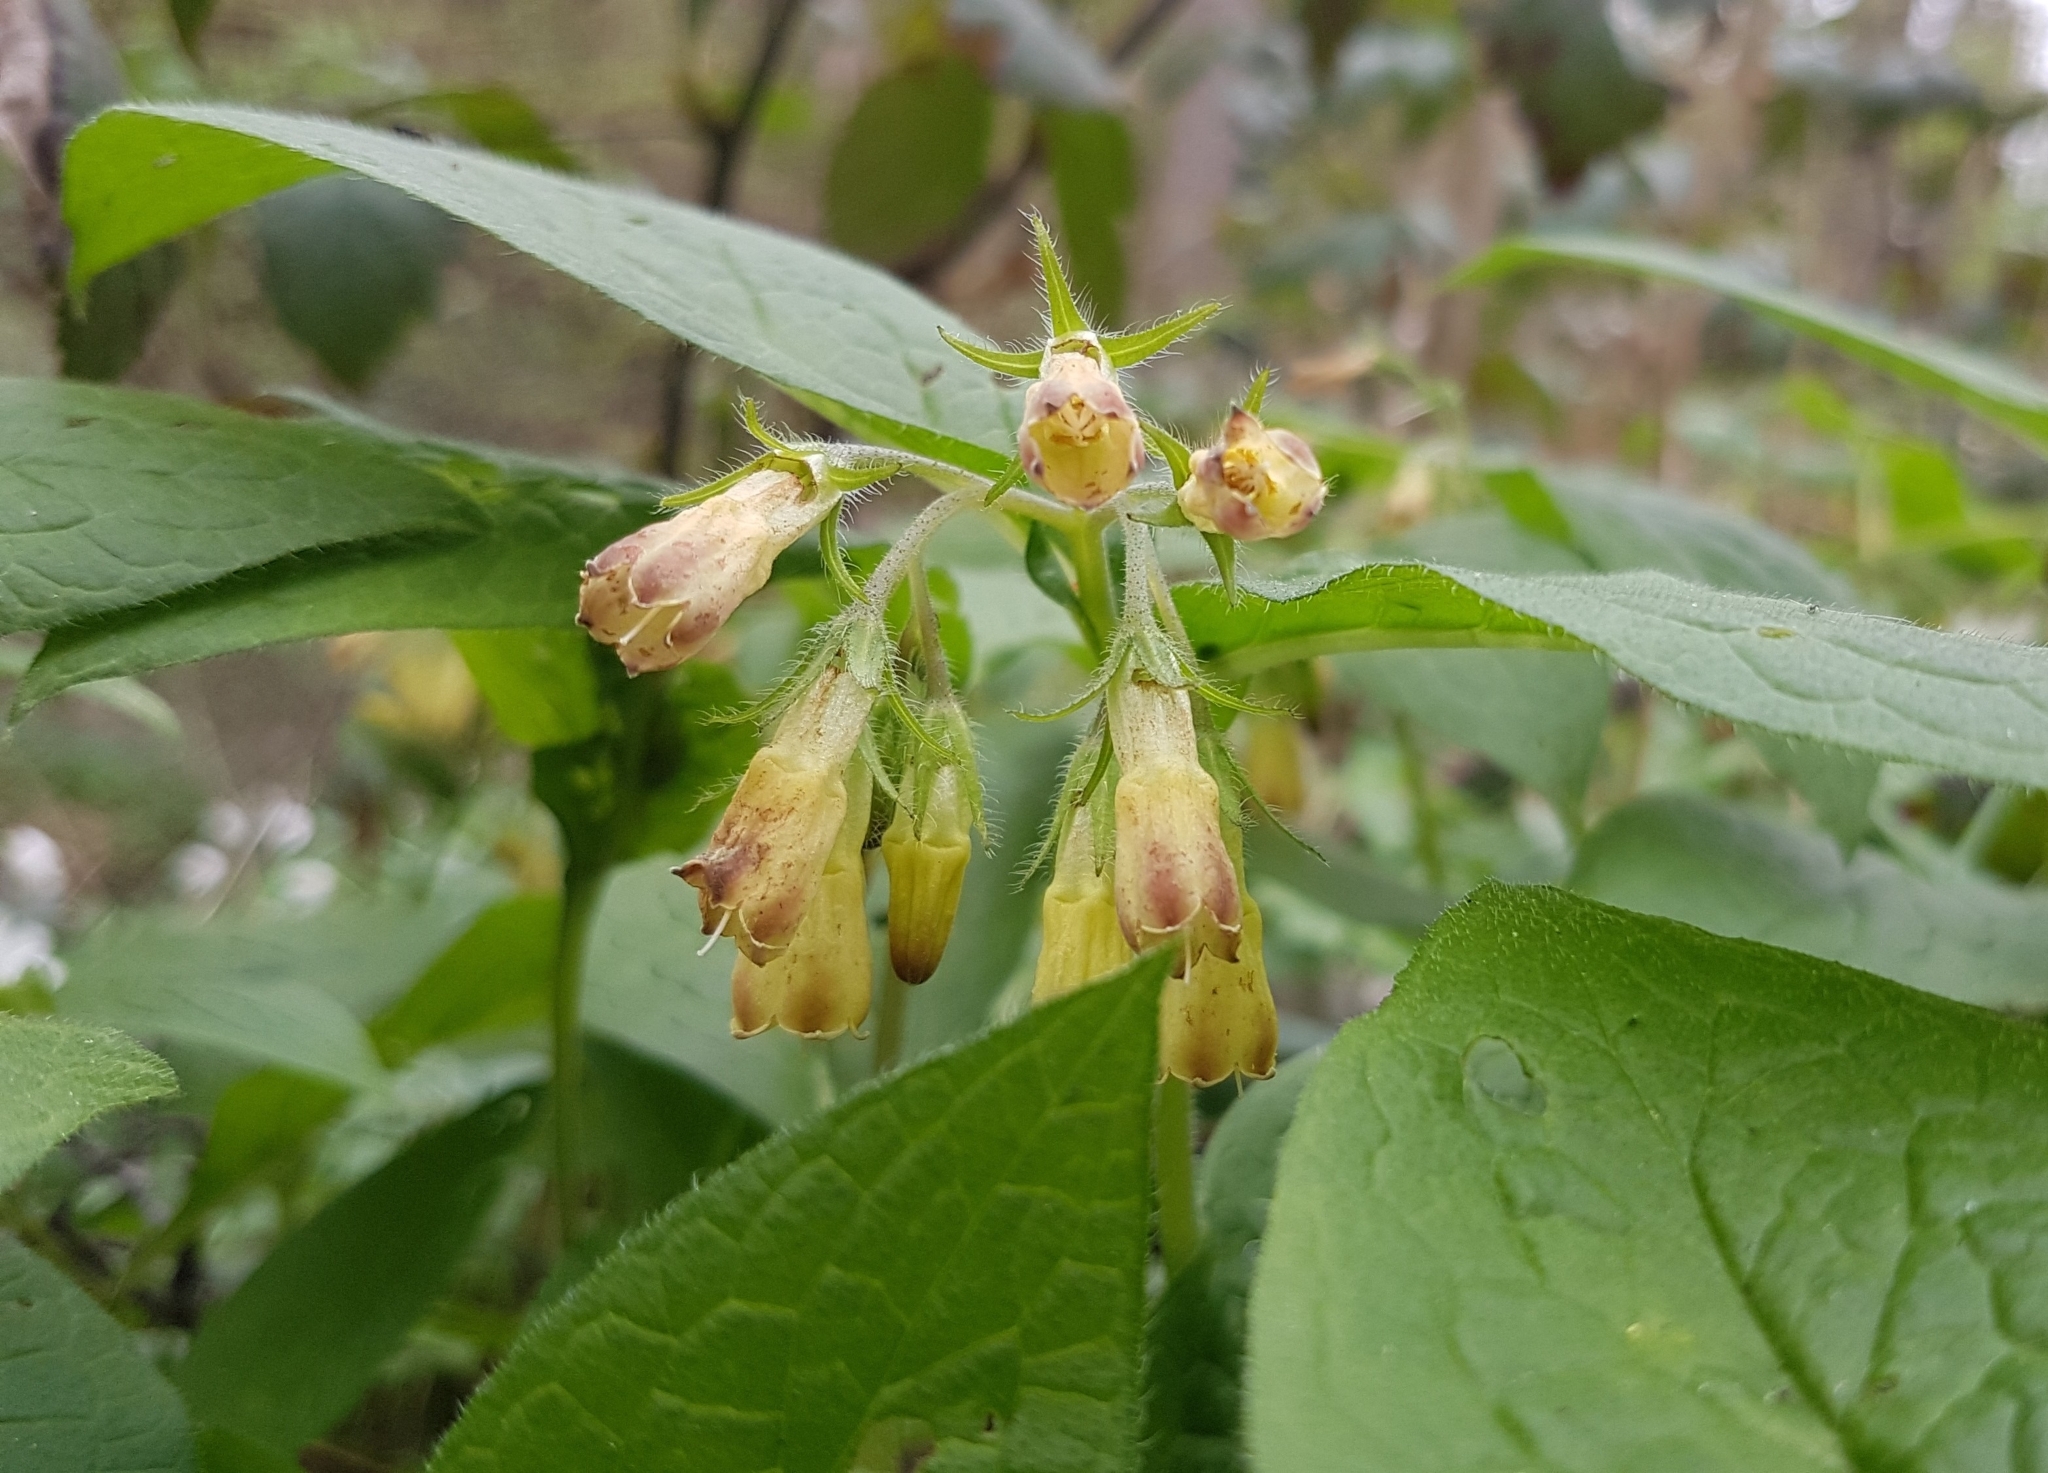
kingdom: Plantae
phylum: Tracheophyta
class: Magnoliopsida
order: Boraginales
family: Boraginaceae
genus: Symphytum
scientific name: Symphytum tuberosum
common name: Tuberous comfrey
